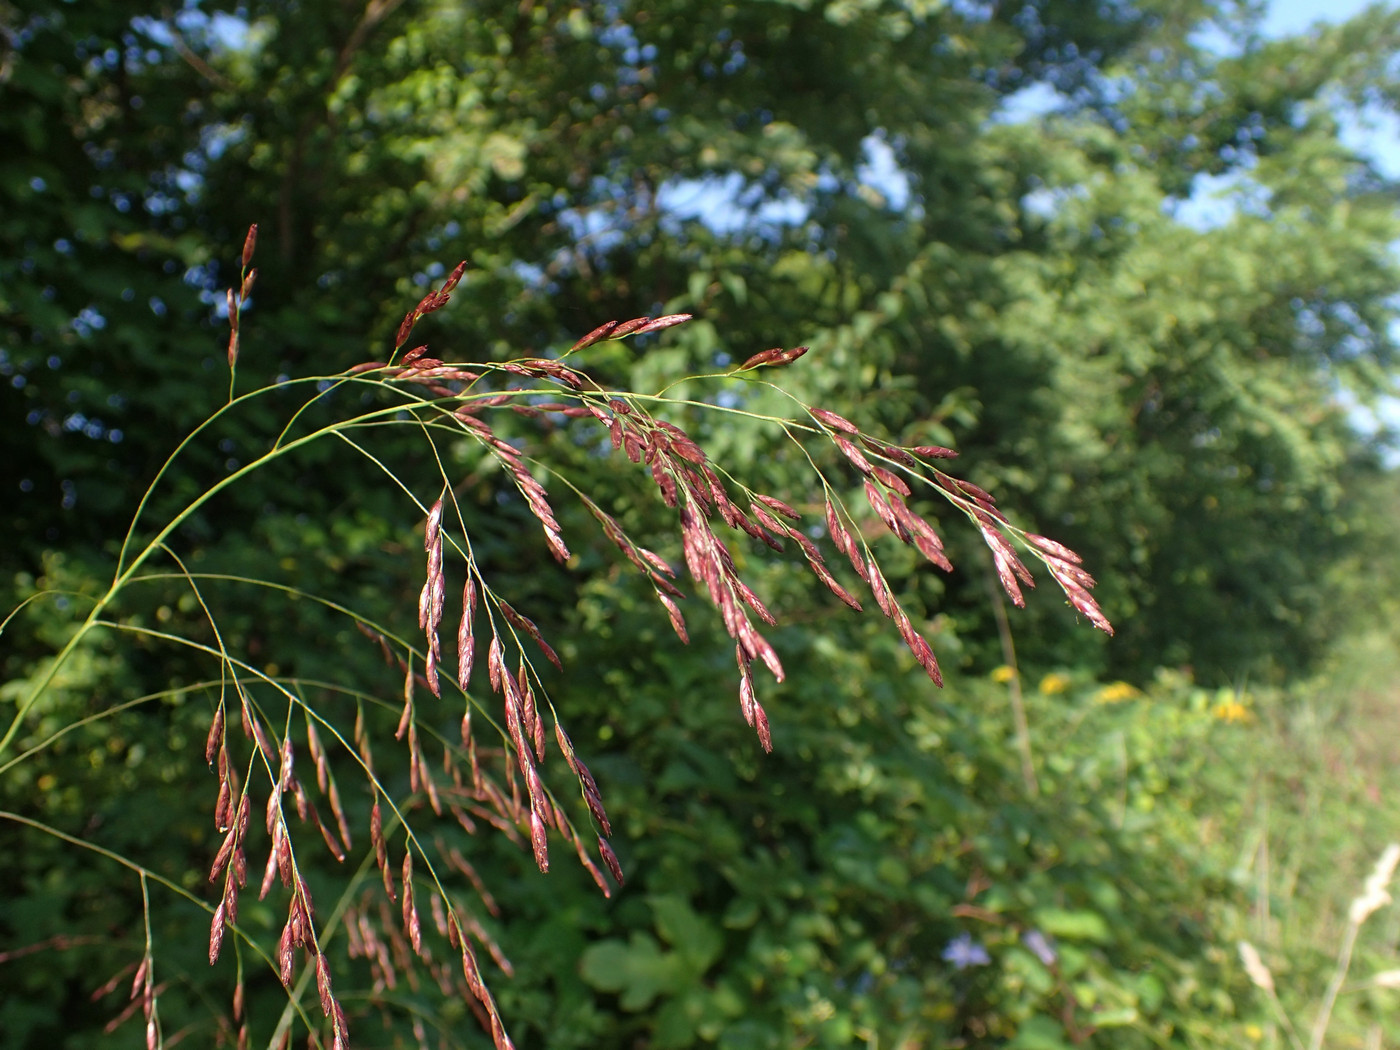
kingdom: Plantae
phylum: Tracheophyta
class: Liliopsida
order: Poales
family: Poaceae
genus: Tridens
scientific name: Tridens flavus
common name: Purpletop
